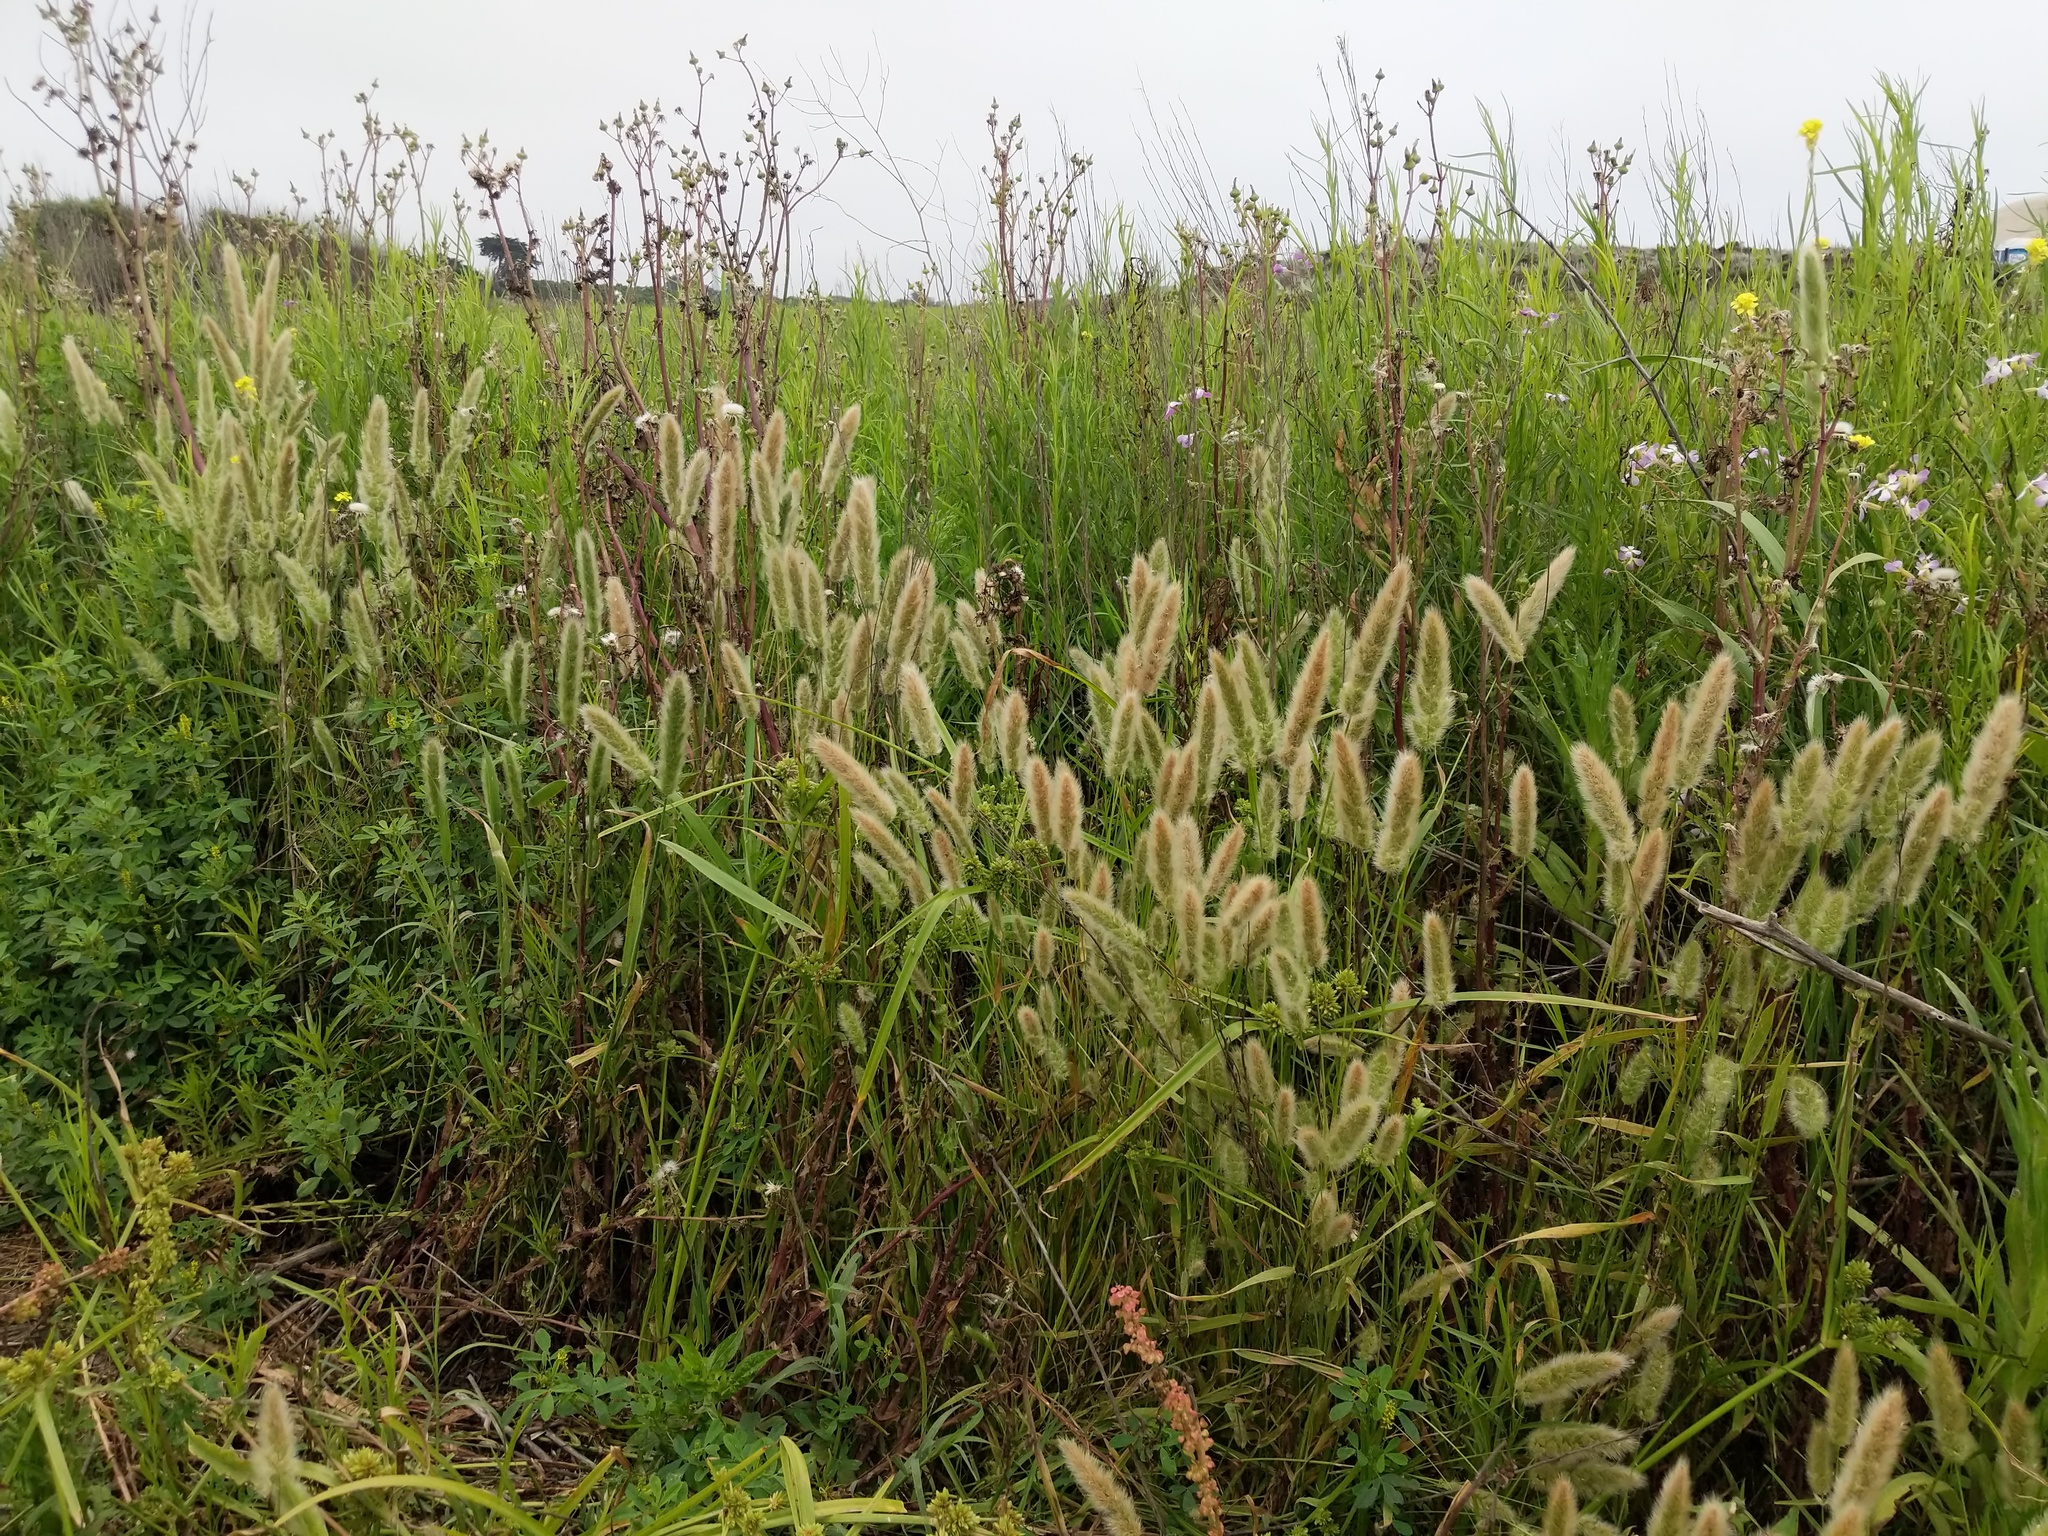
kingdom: Plantae
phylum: Tracheophyta
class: Liliopsida
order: Poales
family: Poaceae
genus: Polypogon
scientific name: Polypogon monspeliensis
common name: Annual rabbitsfoot grass
